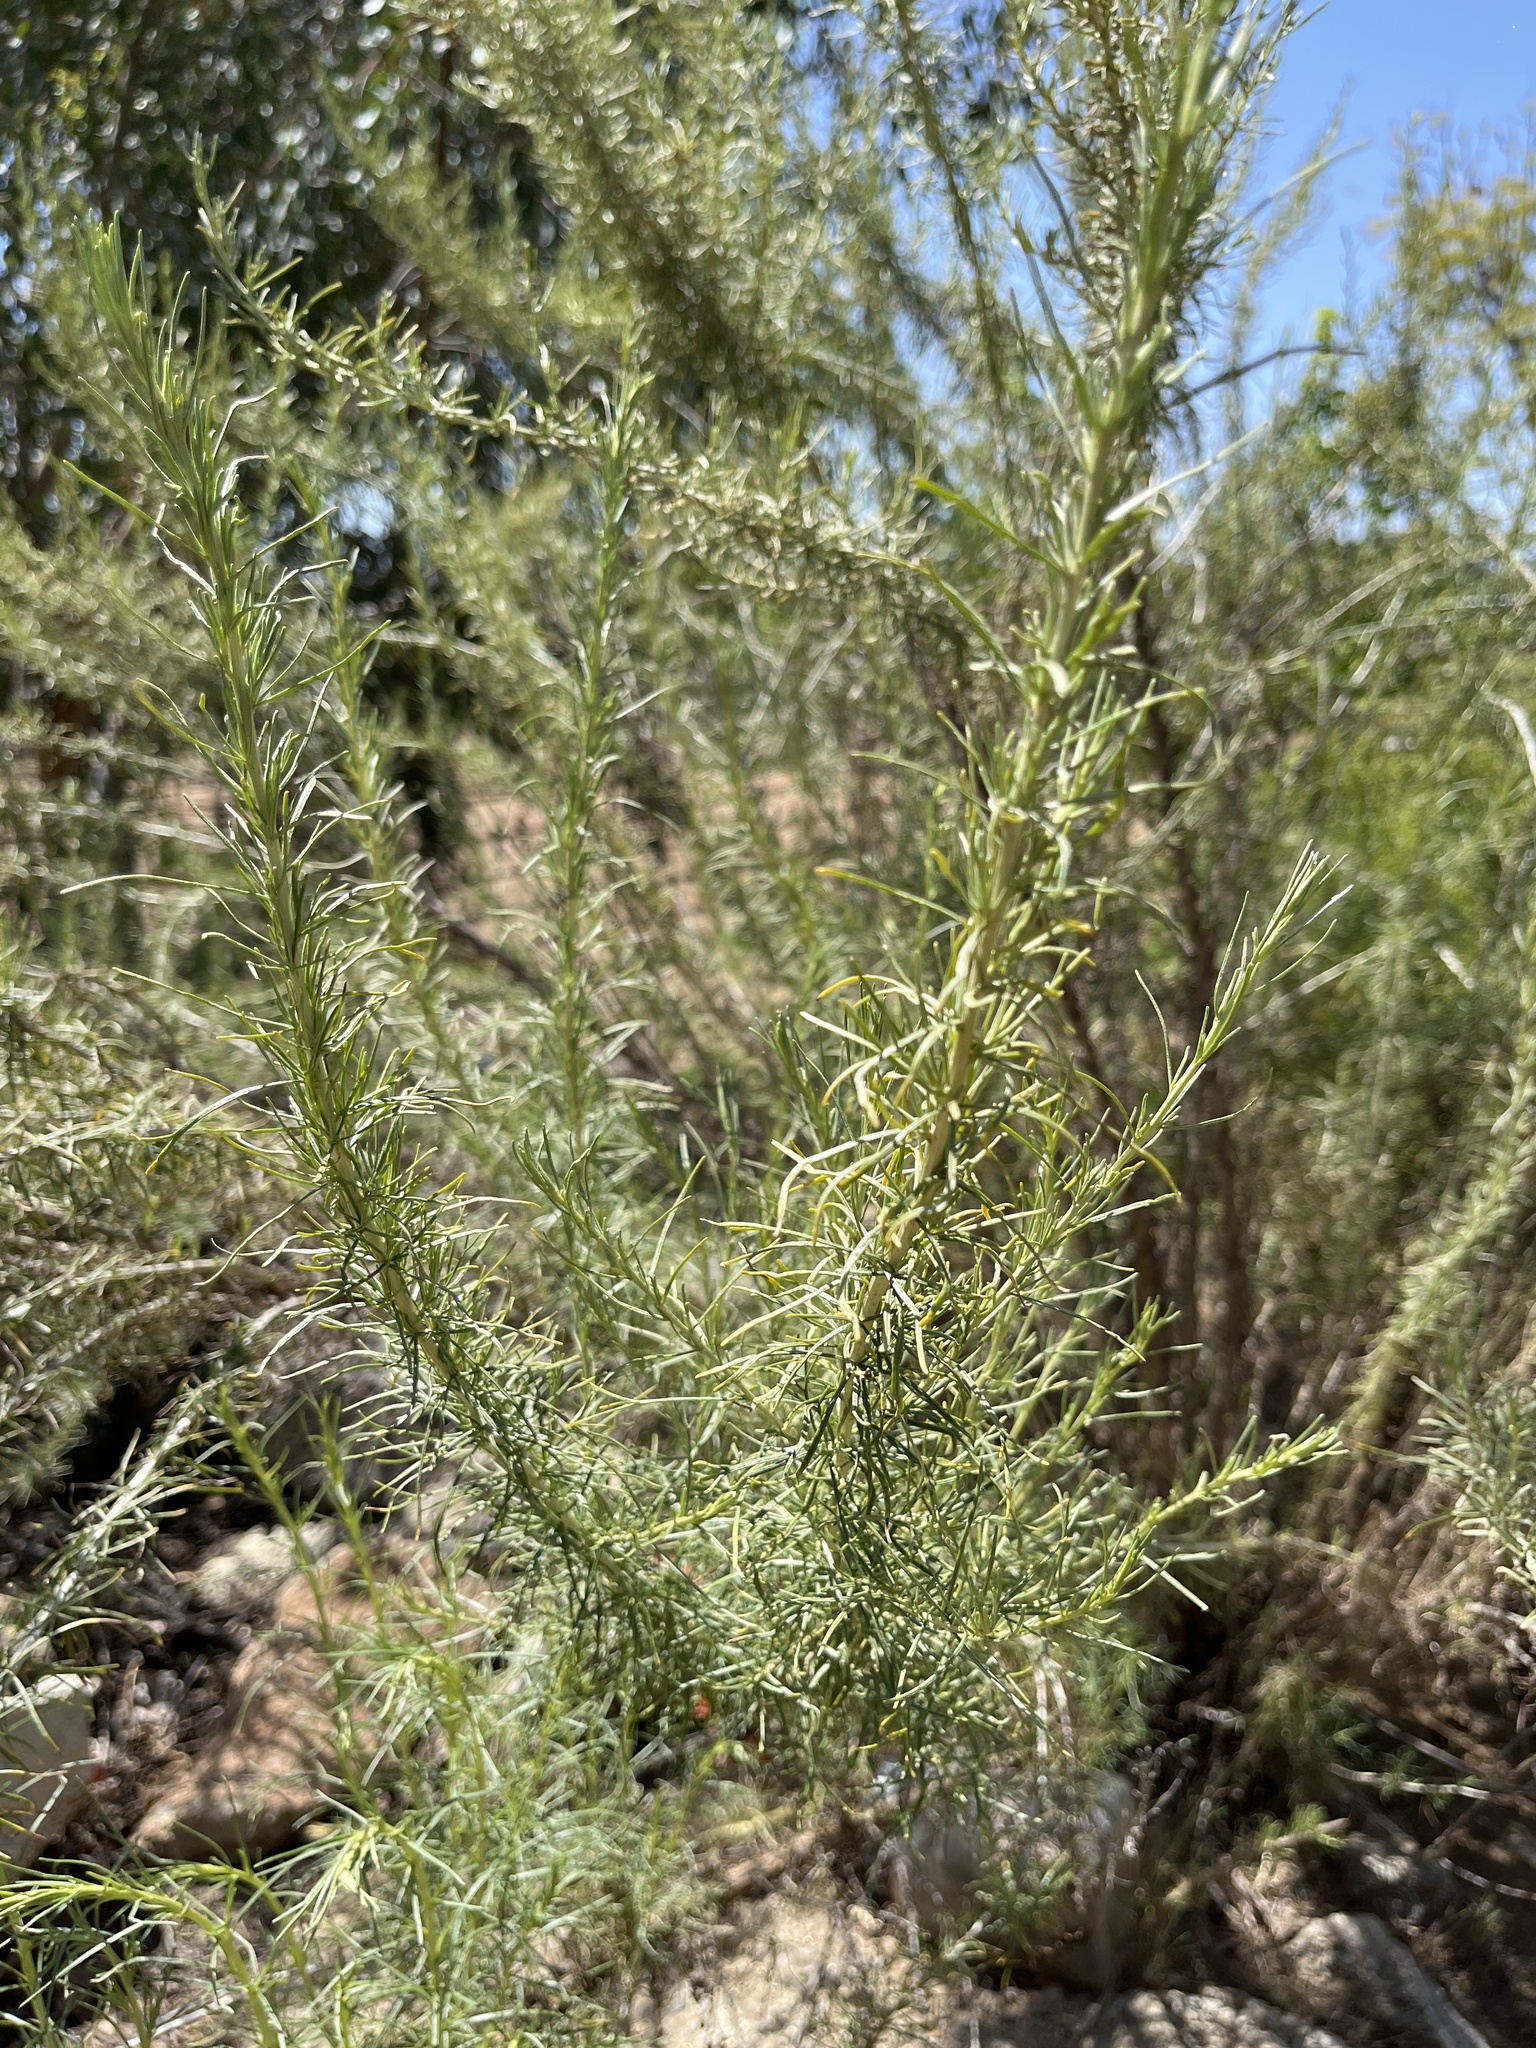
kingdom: Plantae
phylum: Tracheophyta
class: Magnoliopsida
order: Asterales
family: Asteraceae
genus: Artemisia
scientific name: Artemisia californica
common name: California sagebrush
